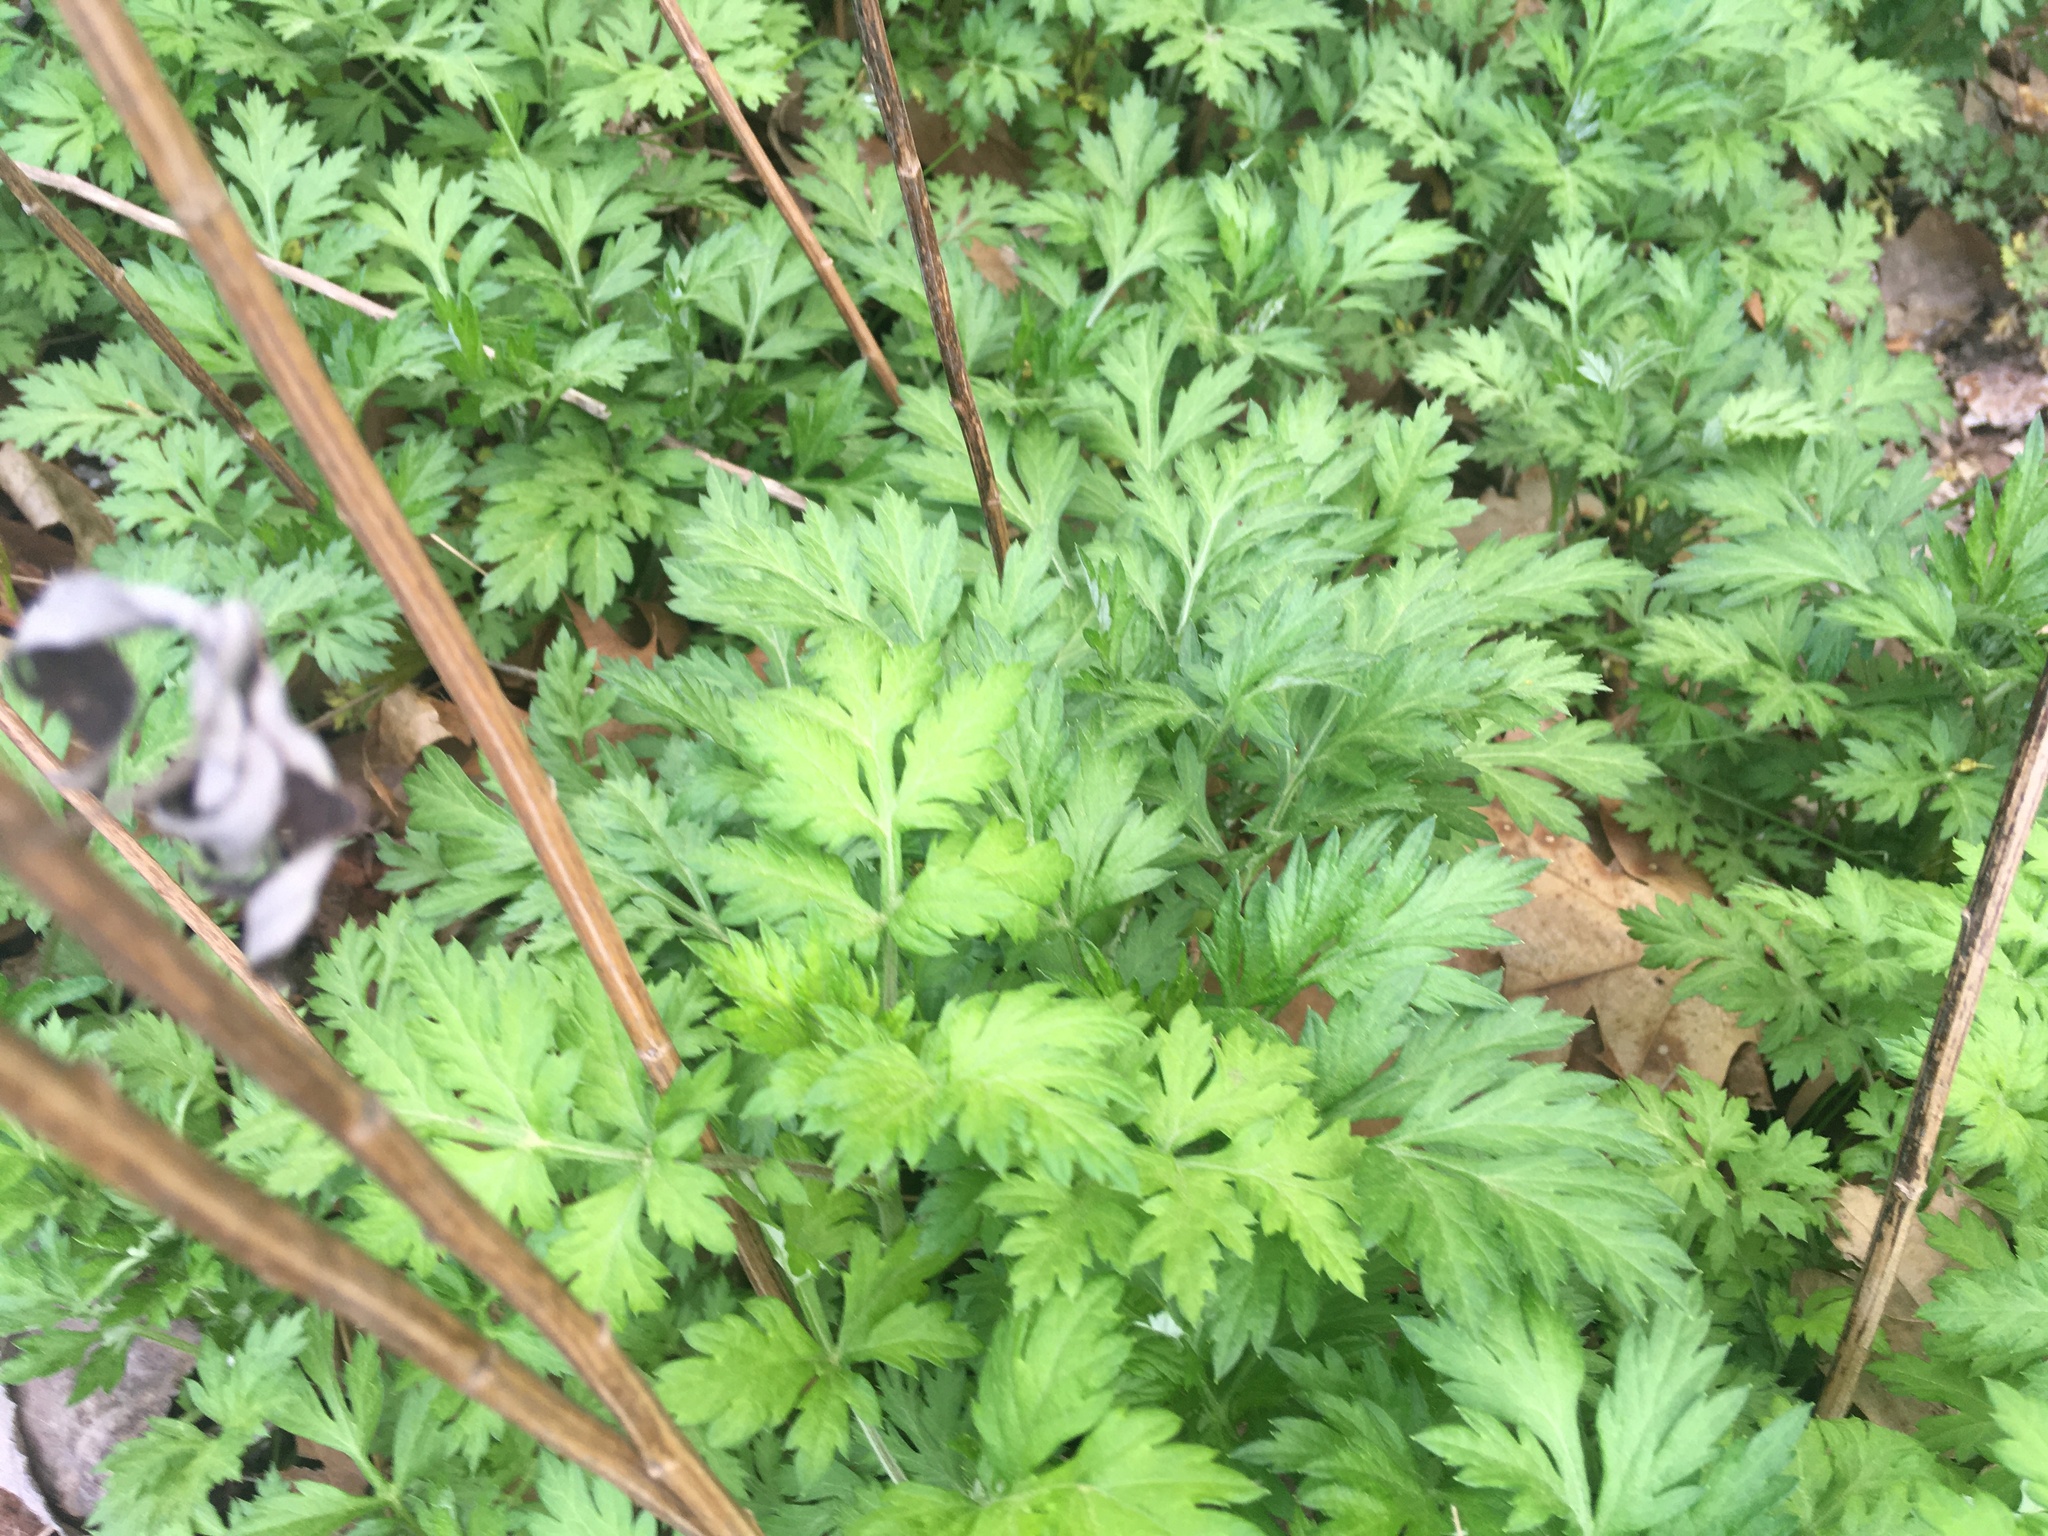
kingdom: Plantae
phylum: Tracheophyta
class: Magnoliopsida
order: Asterales
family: Asteraceae
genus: Artemisia
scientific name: Artemisia vulgaris
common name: Mugwort
